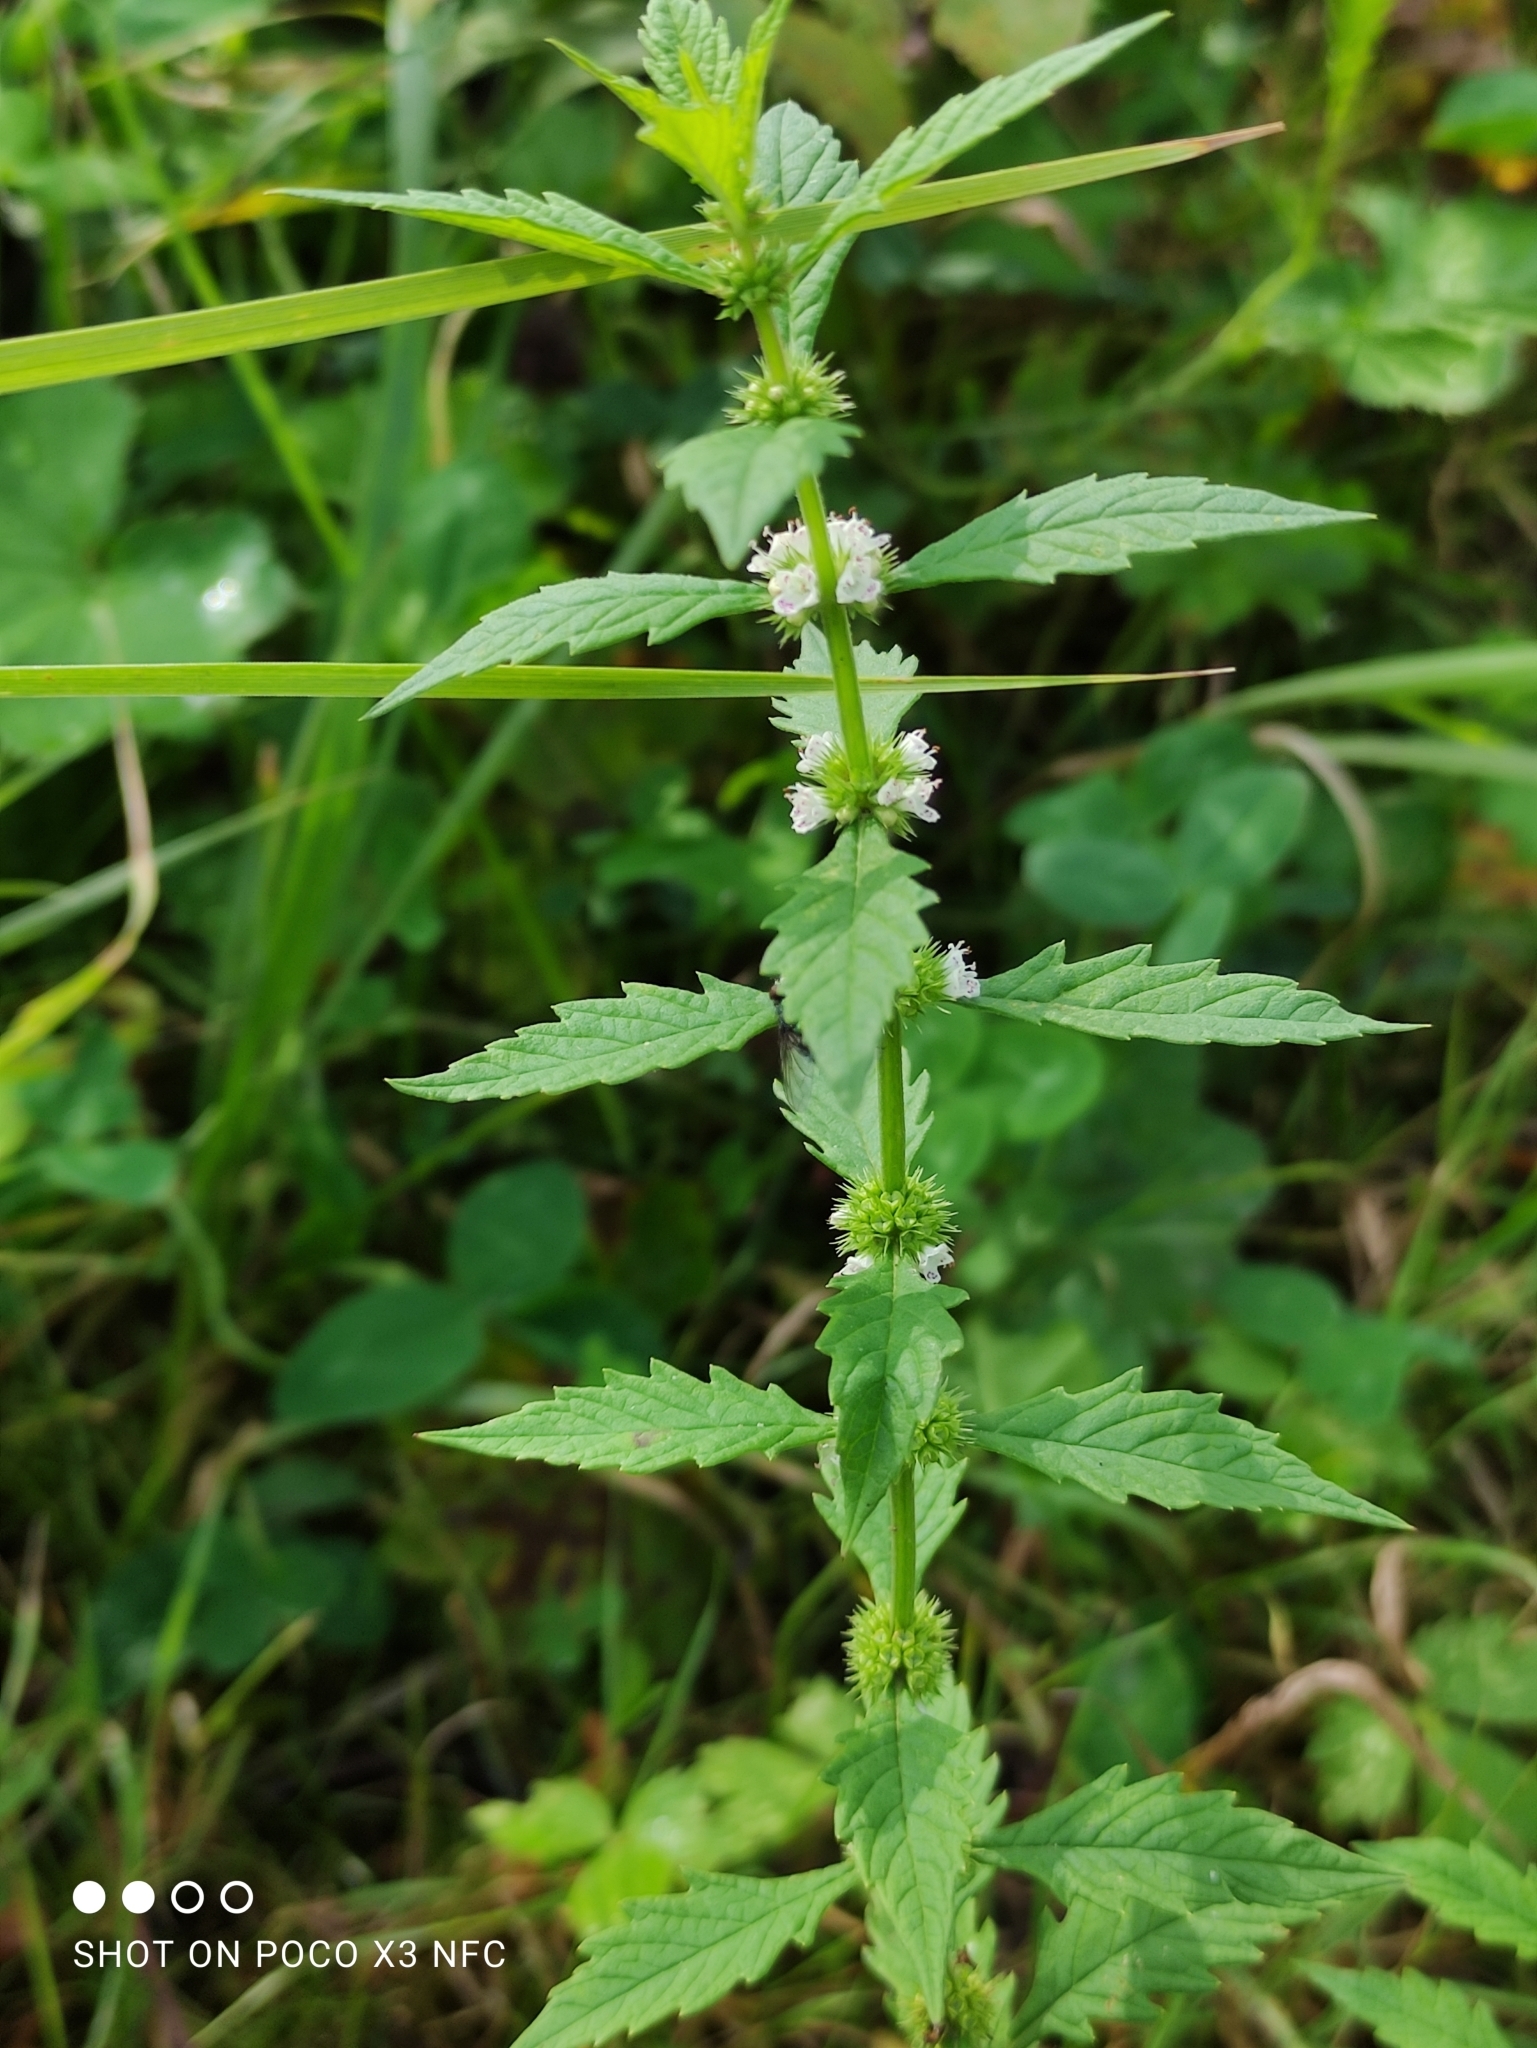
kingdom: Plantae
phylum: Tracheophyta
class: Magnoliopsida
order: Lamiales
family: Lamiaceae
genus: Lycopus
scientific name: Lycopus europaeus
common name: European bugleweed
